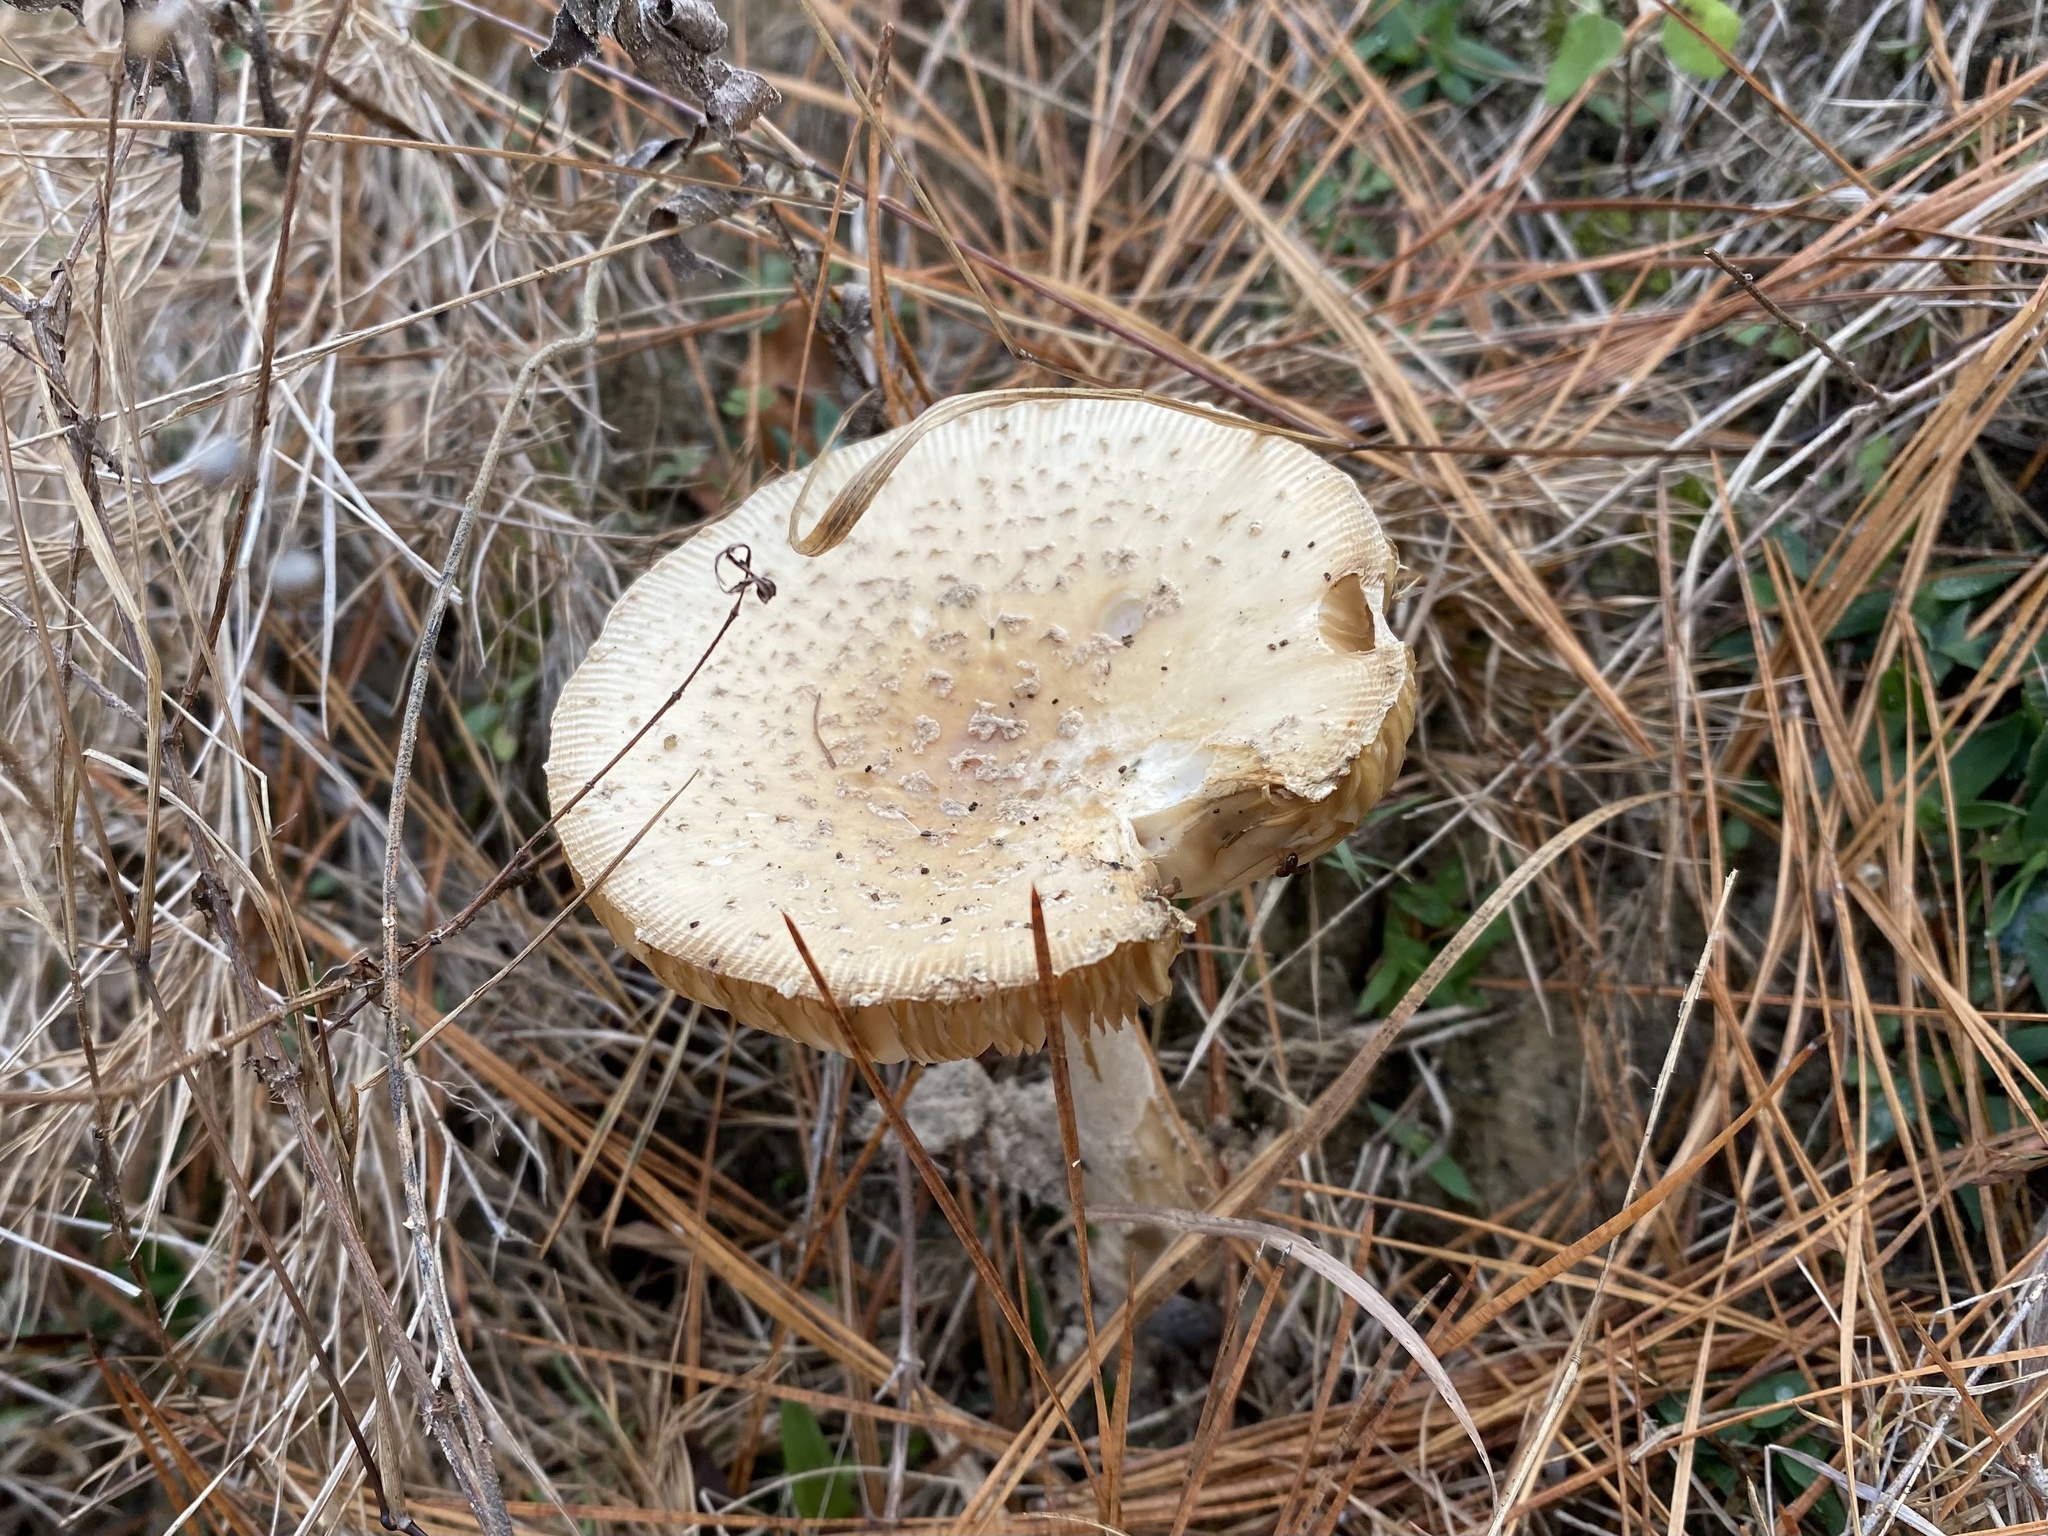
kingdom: Fungi
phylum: Basidiomycota
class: Agaricomycetes
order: Agaricales
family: Amanitaceae
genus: Amanita
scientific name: Amanita persicina
